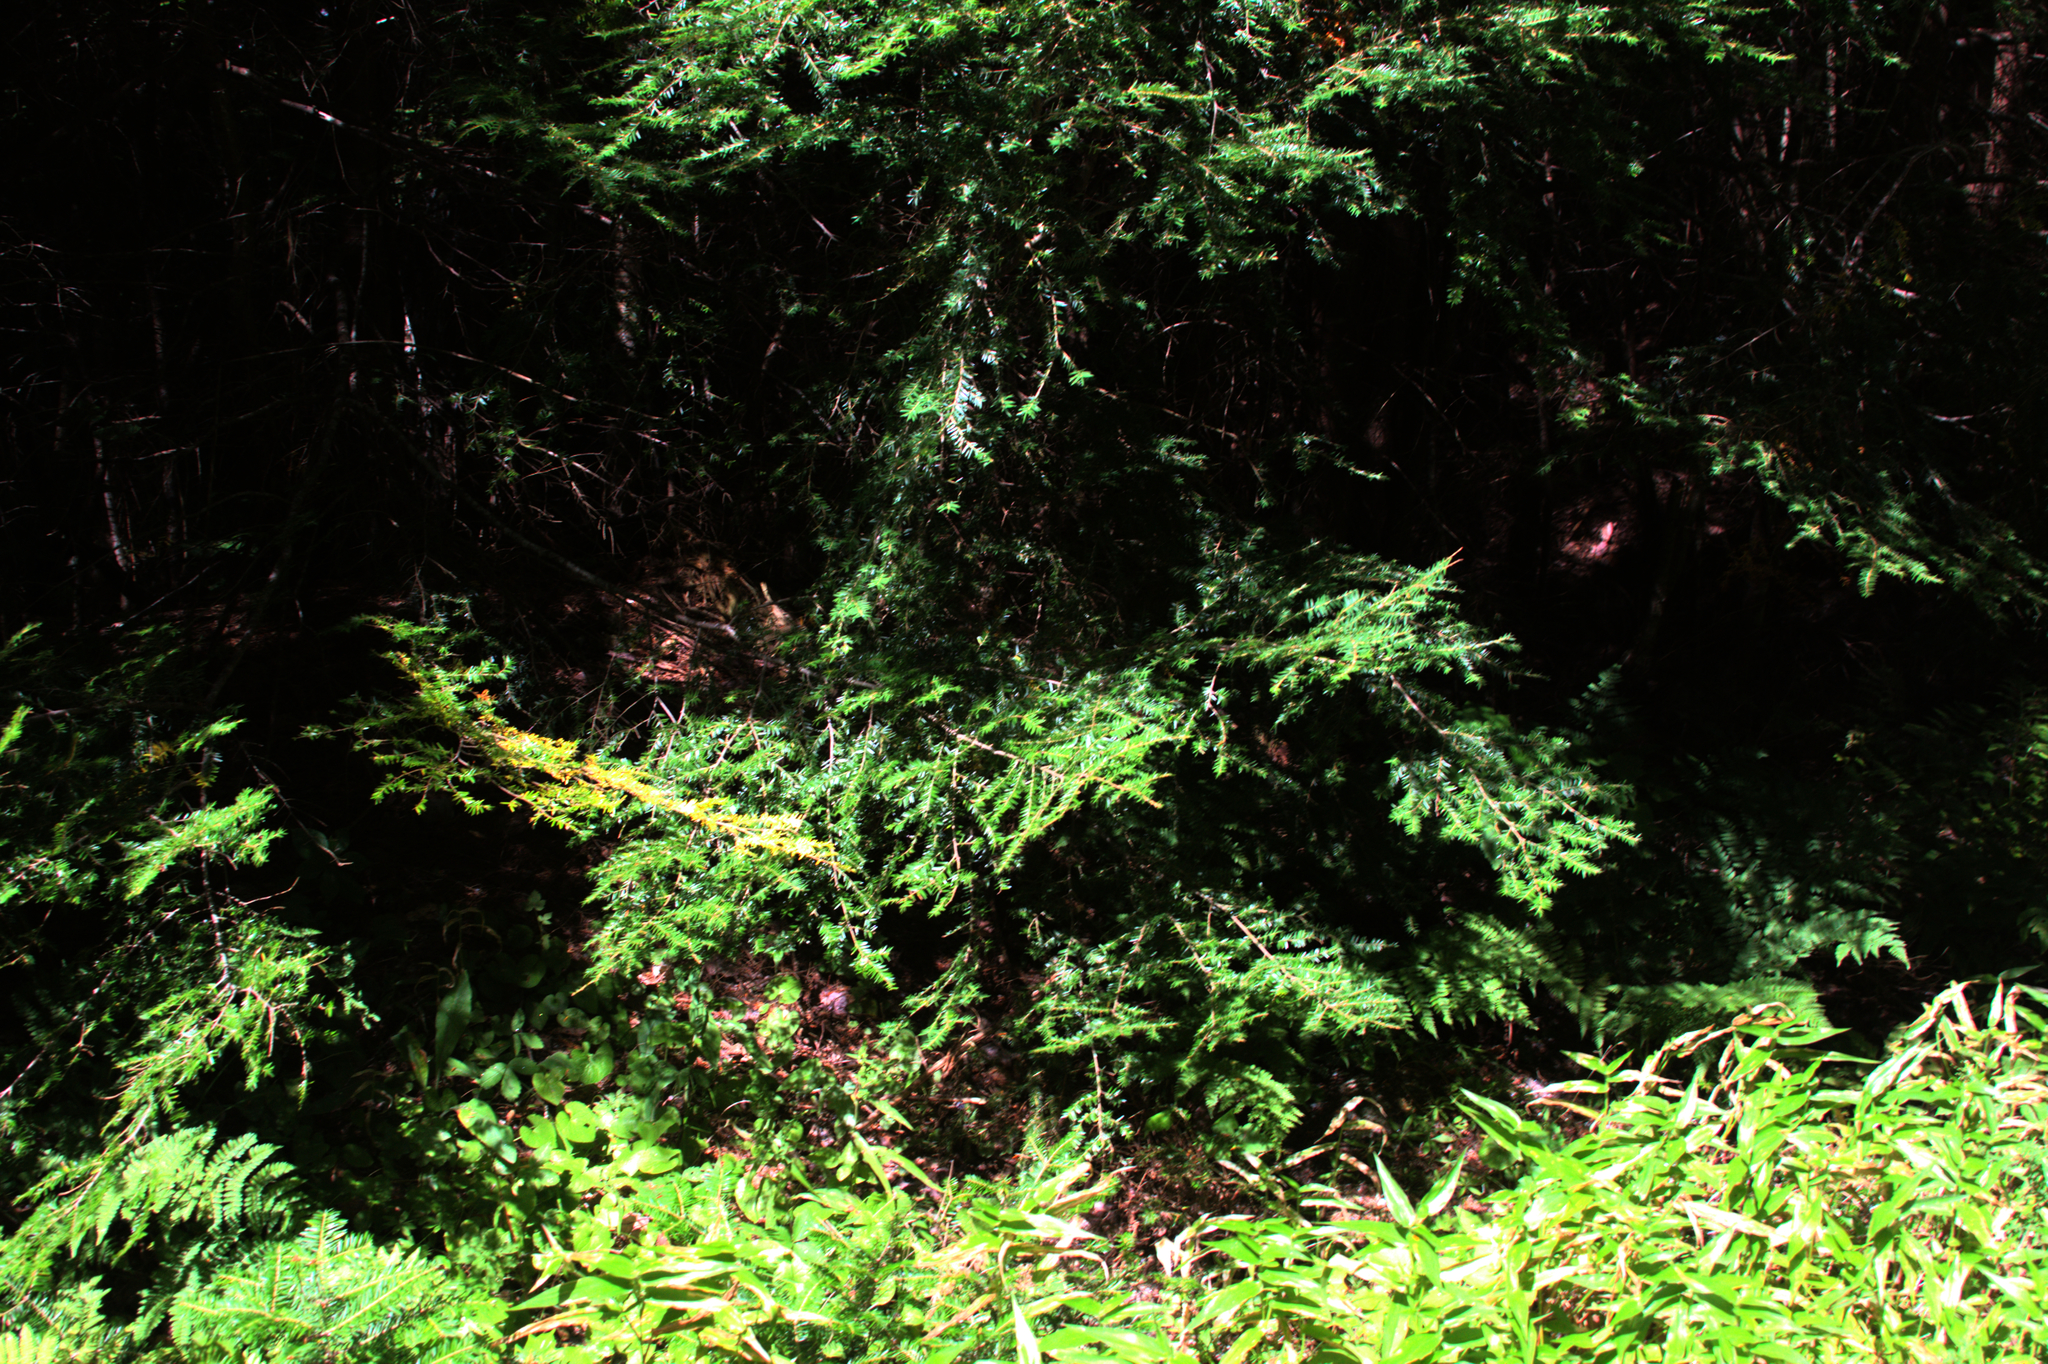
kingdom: Plantae
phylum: Tracheophyta
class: Pinopsida
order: Pinales
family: Pinaceae
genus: Tsuga
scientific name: Tsuga canadensis
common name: Eastern hemlock
